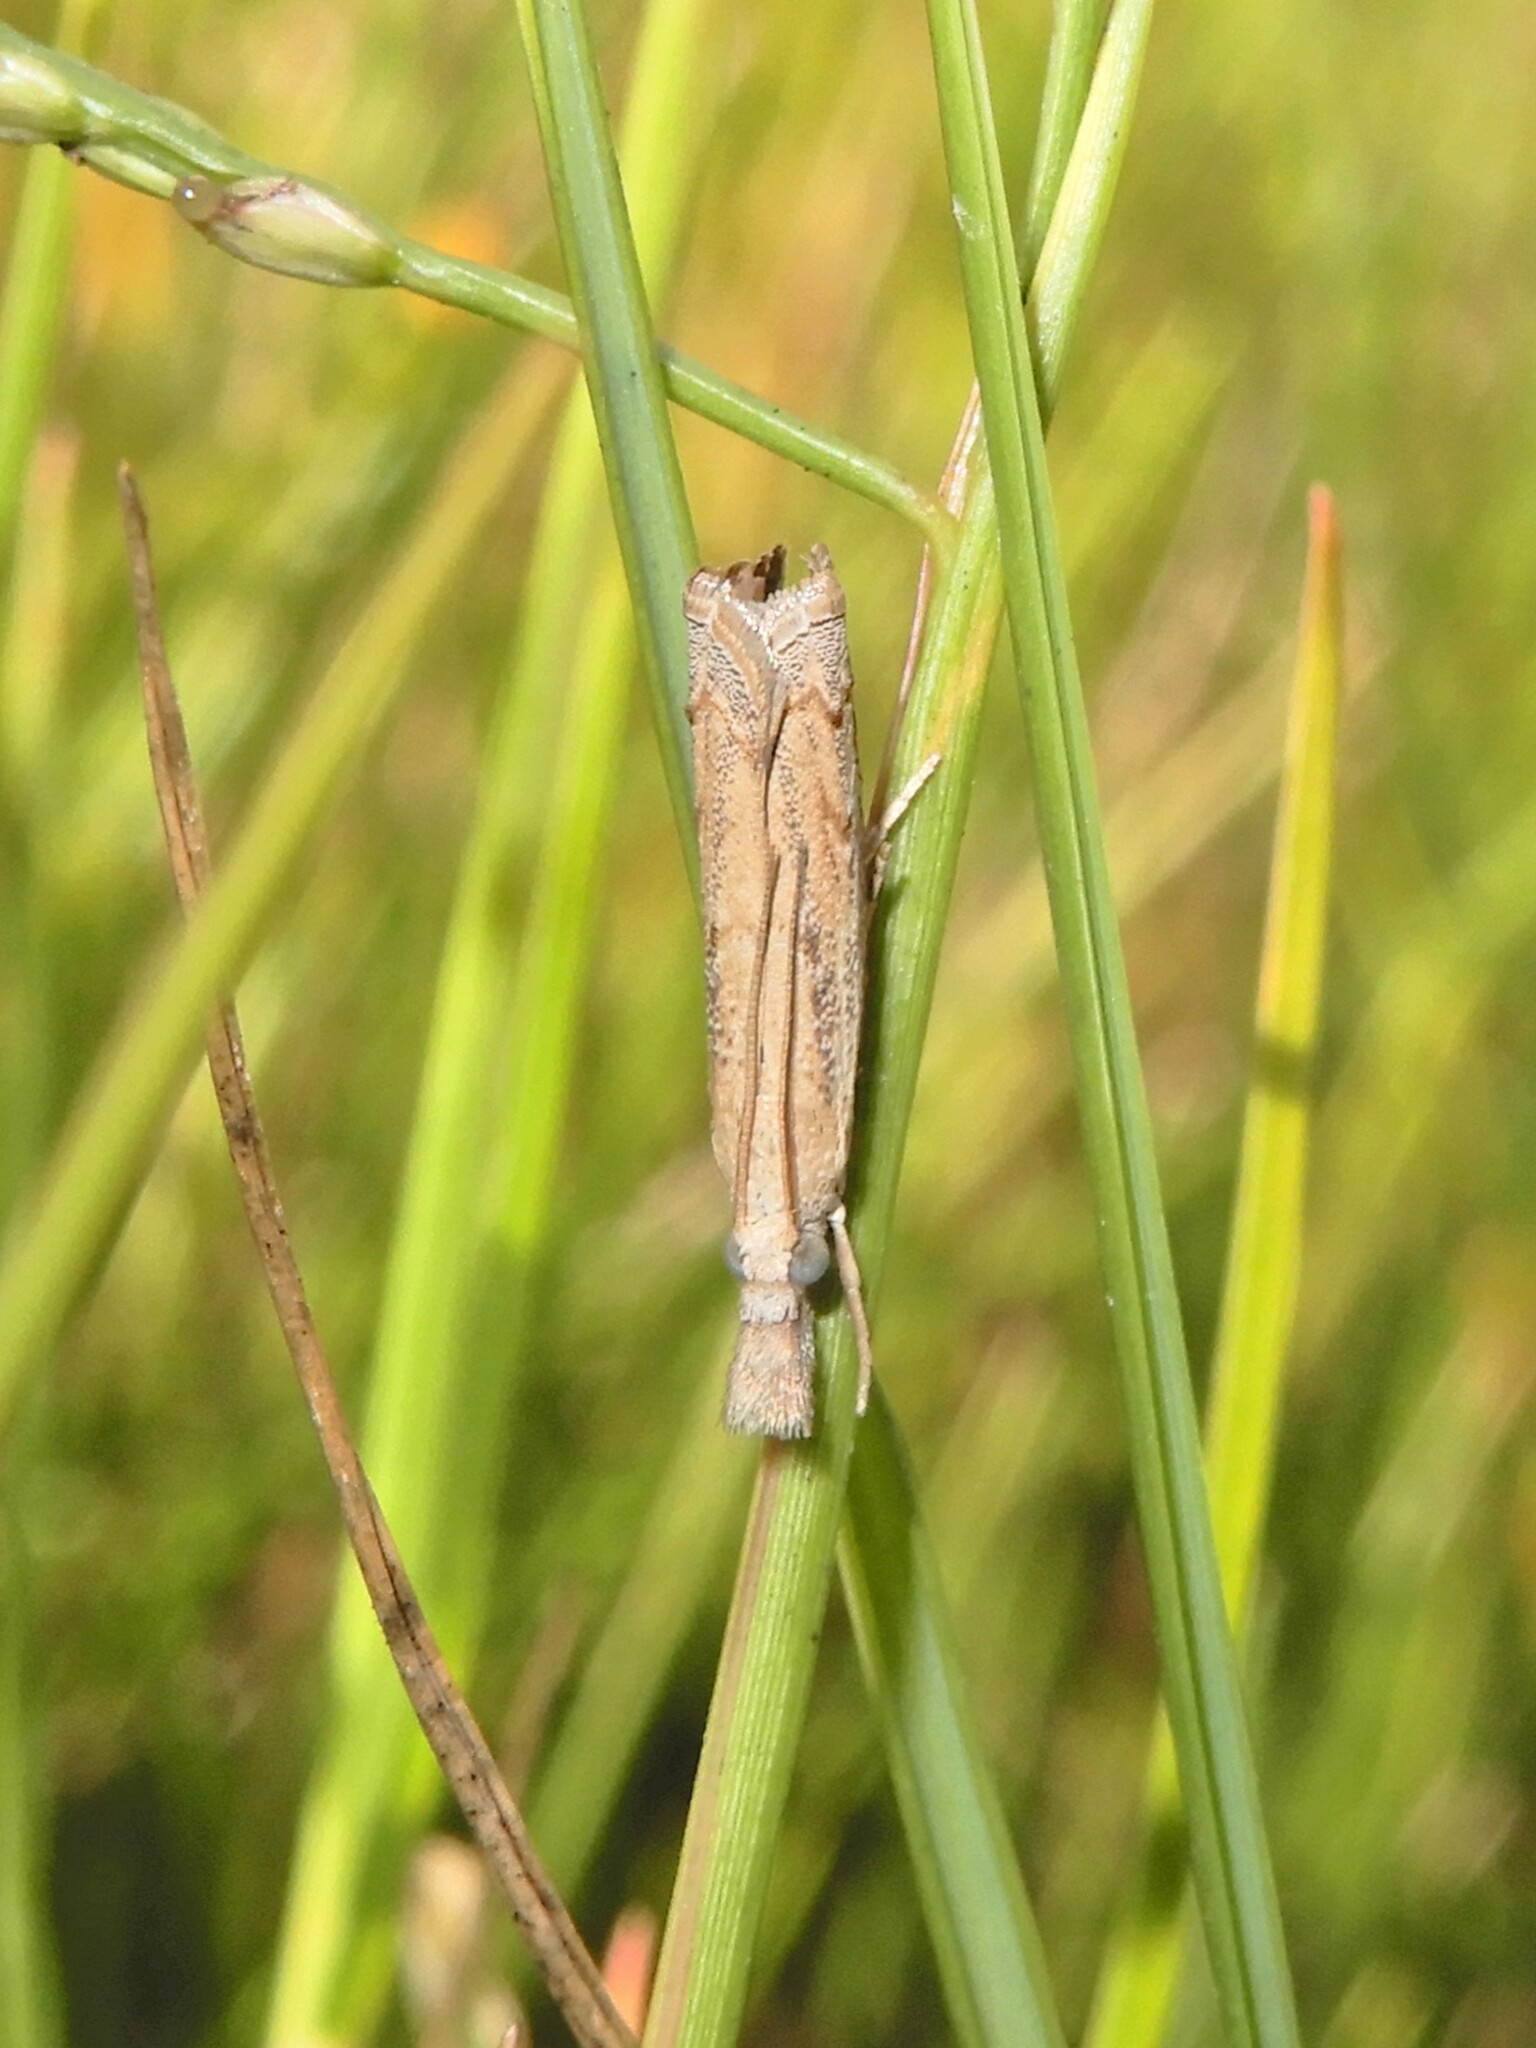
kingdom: Animalia
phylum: Arthropoda
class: Insecta
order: Lepidoptera
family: Crambidae
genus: Culladia
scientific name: Culladia cuneiferellus
